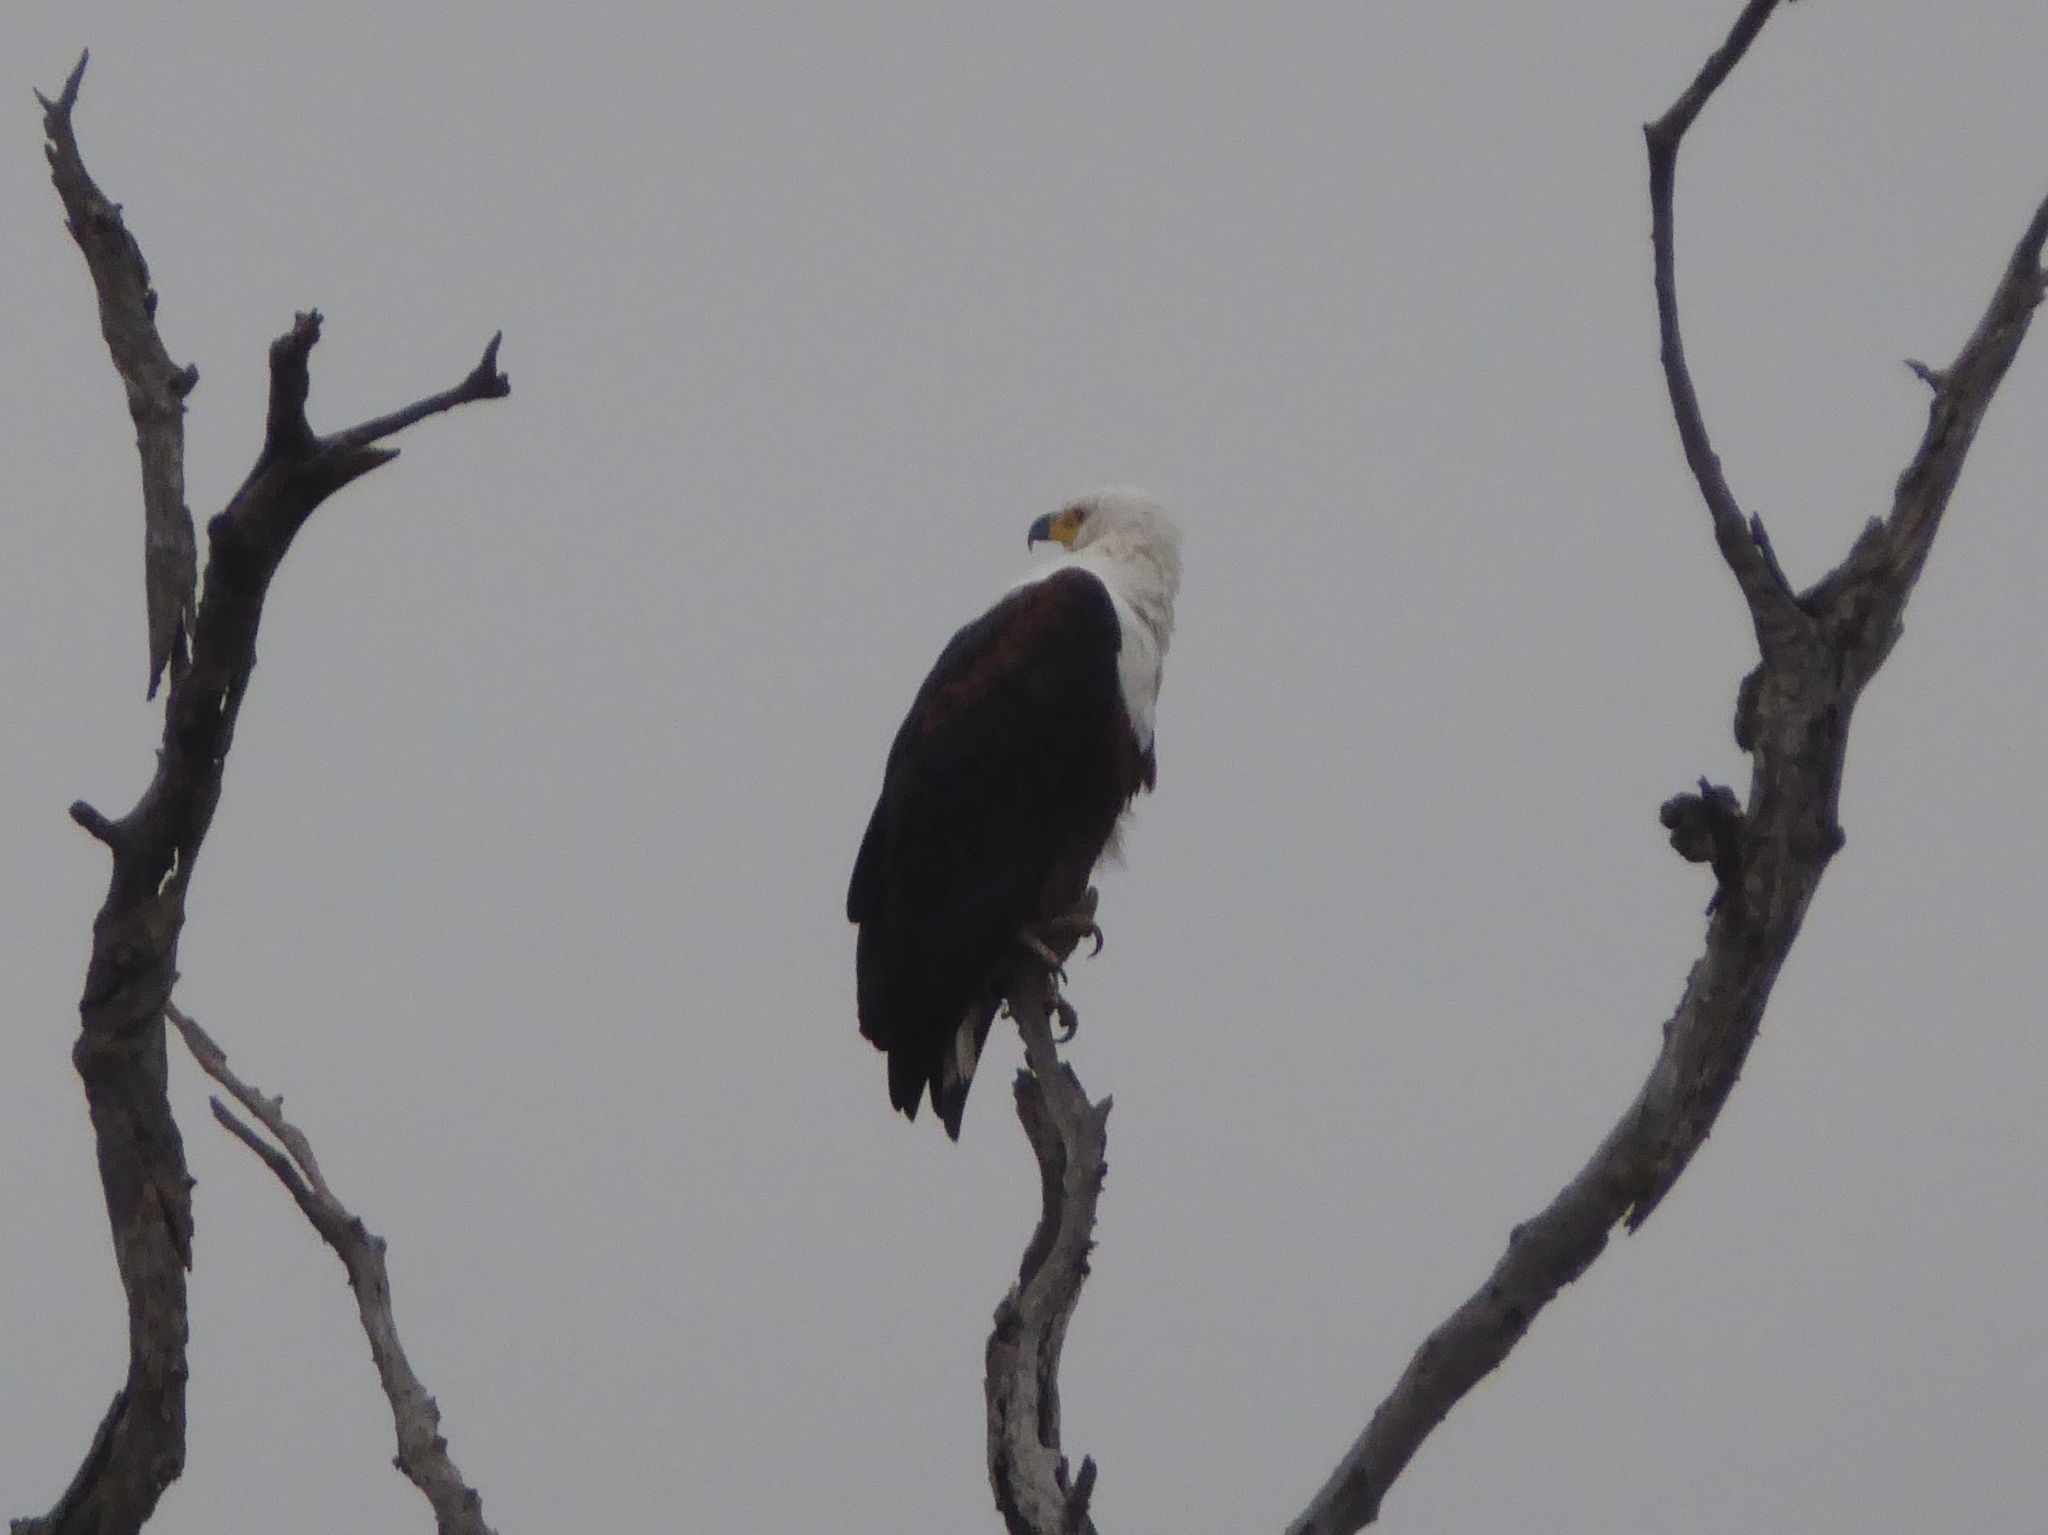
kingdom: Animalia
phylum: Chordata
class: Aves
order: Accipitriformes
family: Accipitridae
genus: Haliaeetus
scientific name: Haliaeetus vocifer
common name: African fish eagle
